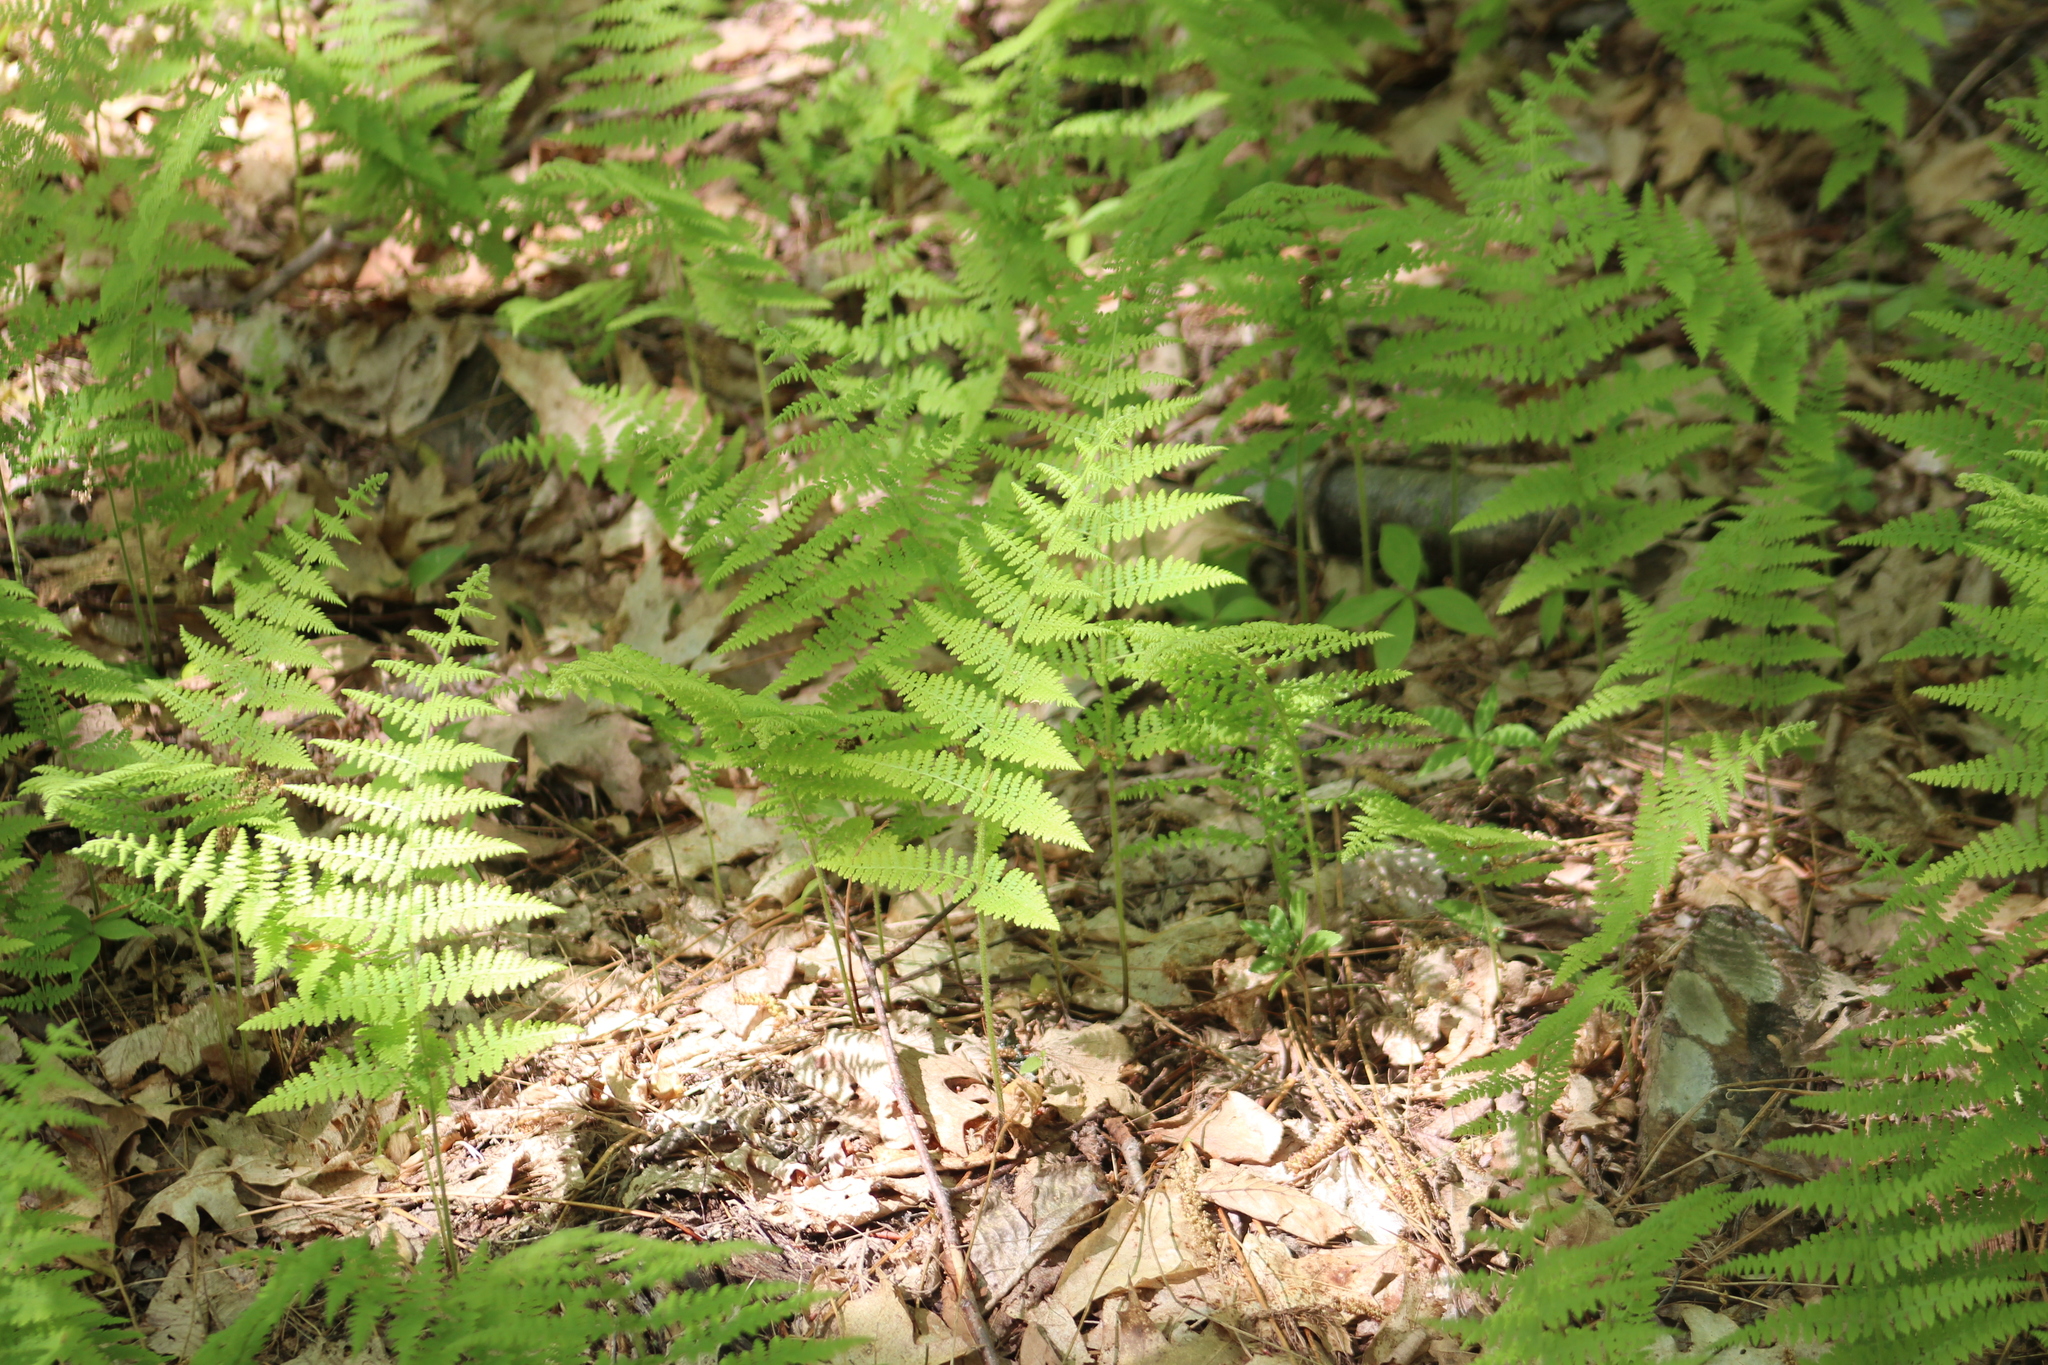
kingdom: Plantae
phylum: Tracheophyta
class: Polypodiopsida
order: Polypodiales
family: Dennstaedtiaceae
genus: Sitobolium
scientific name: Sitobolium punctilobum
